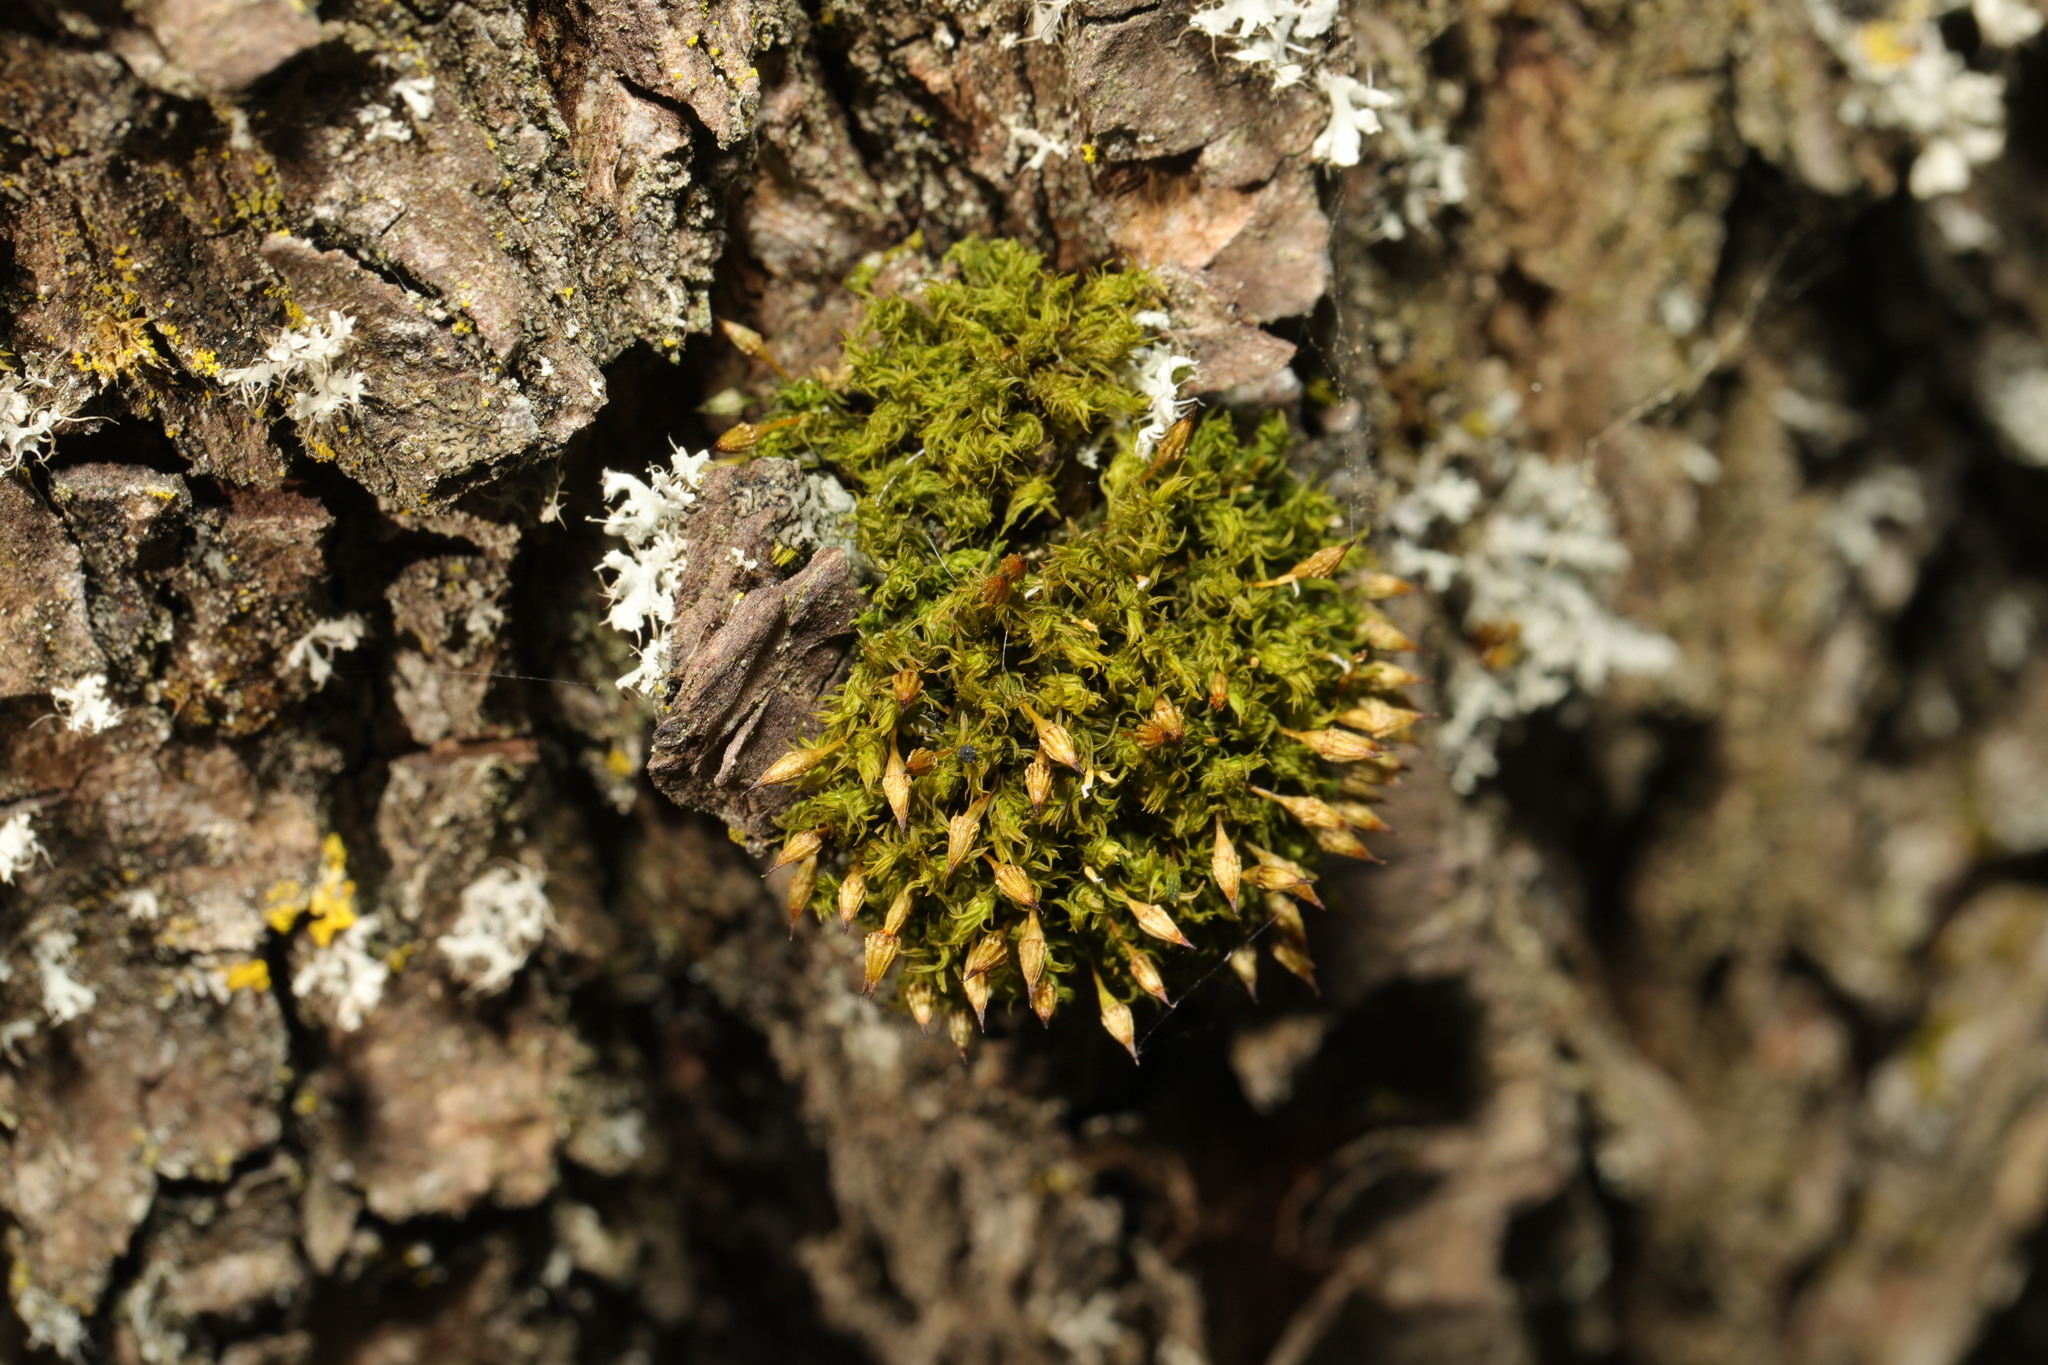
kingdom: Plantae
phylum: Bryophyta
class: Bryopsida
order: Orthotrichales
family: Orthotrichaceae
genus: Orthotrichum
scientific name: Orthotrichum pulchellum
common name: Elegant bristle-moss
